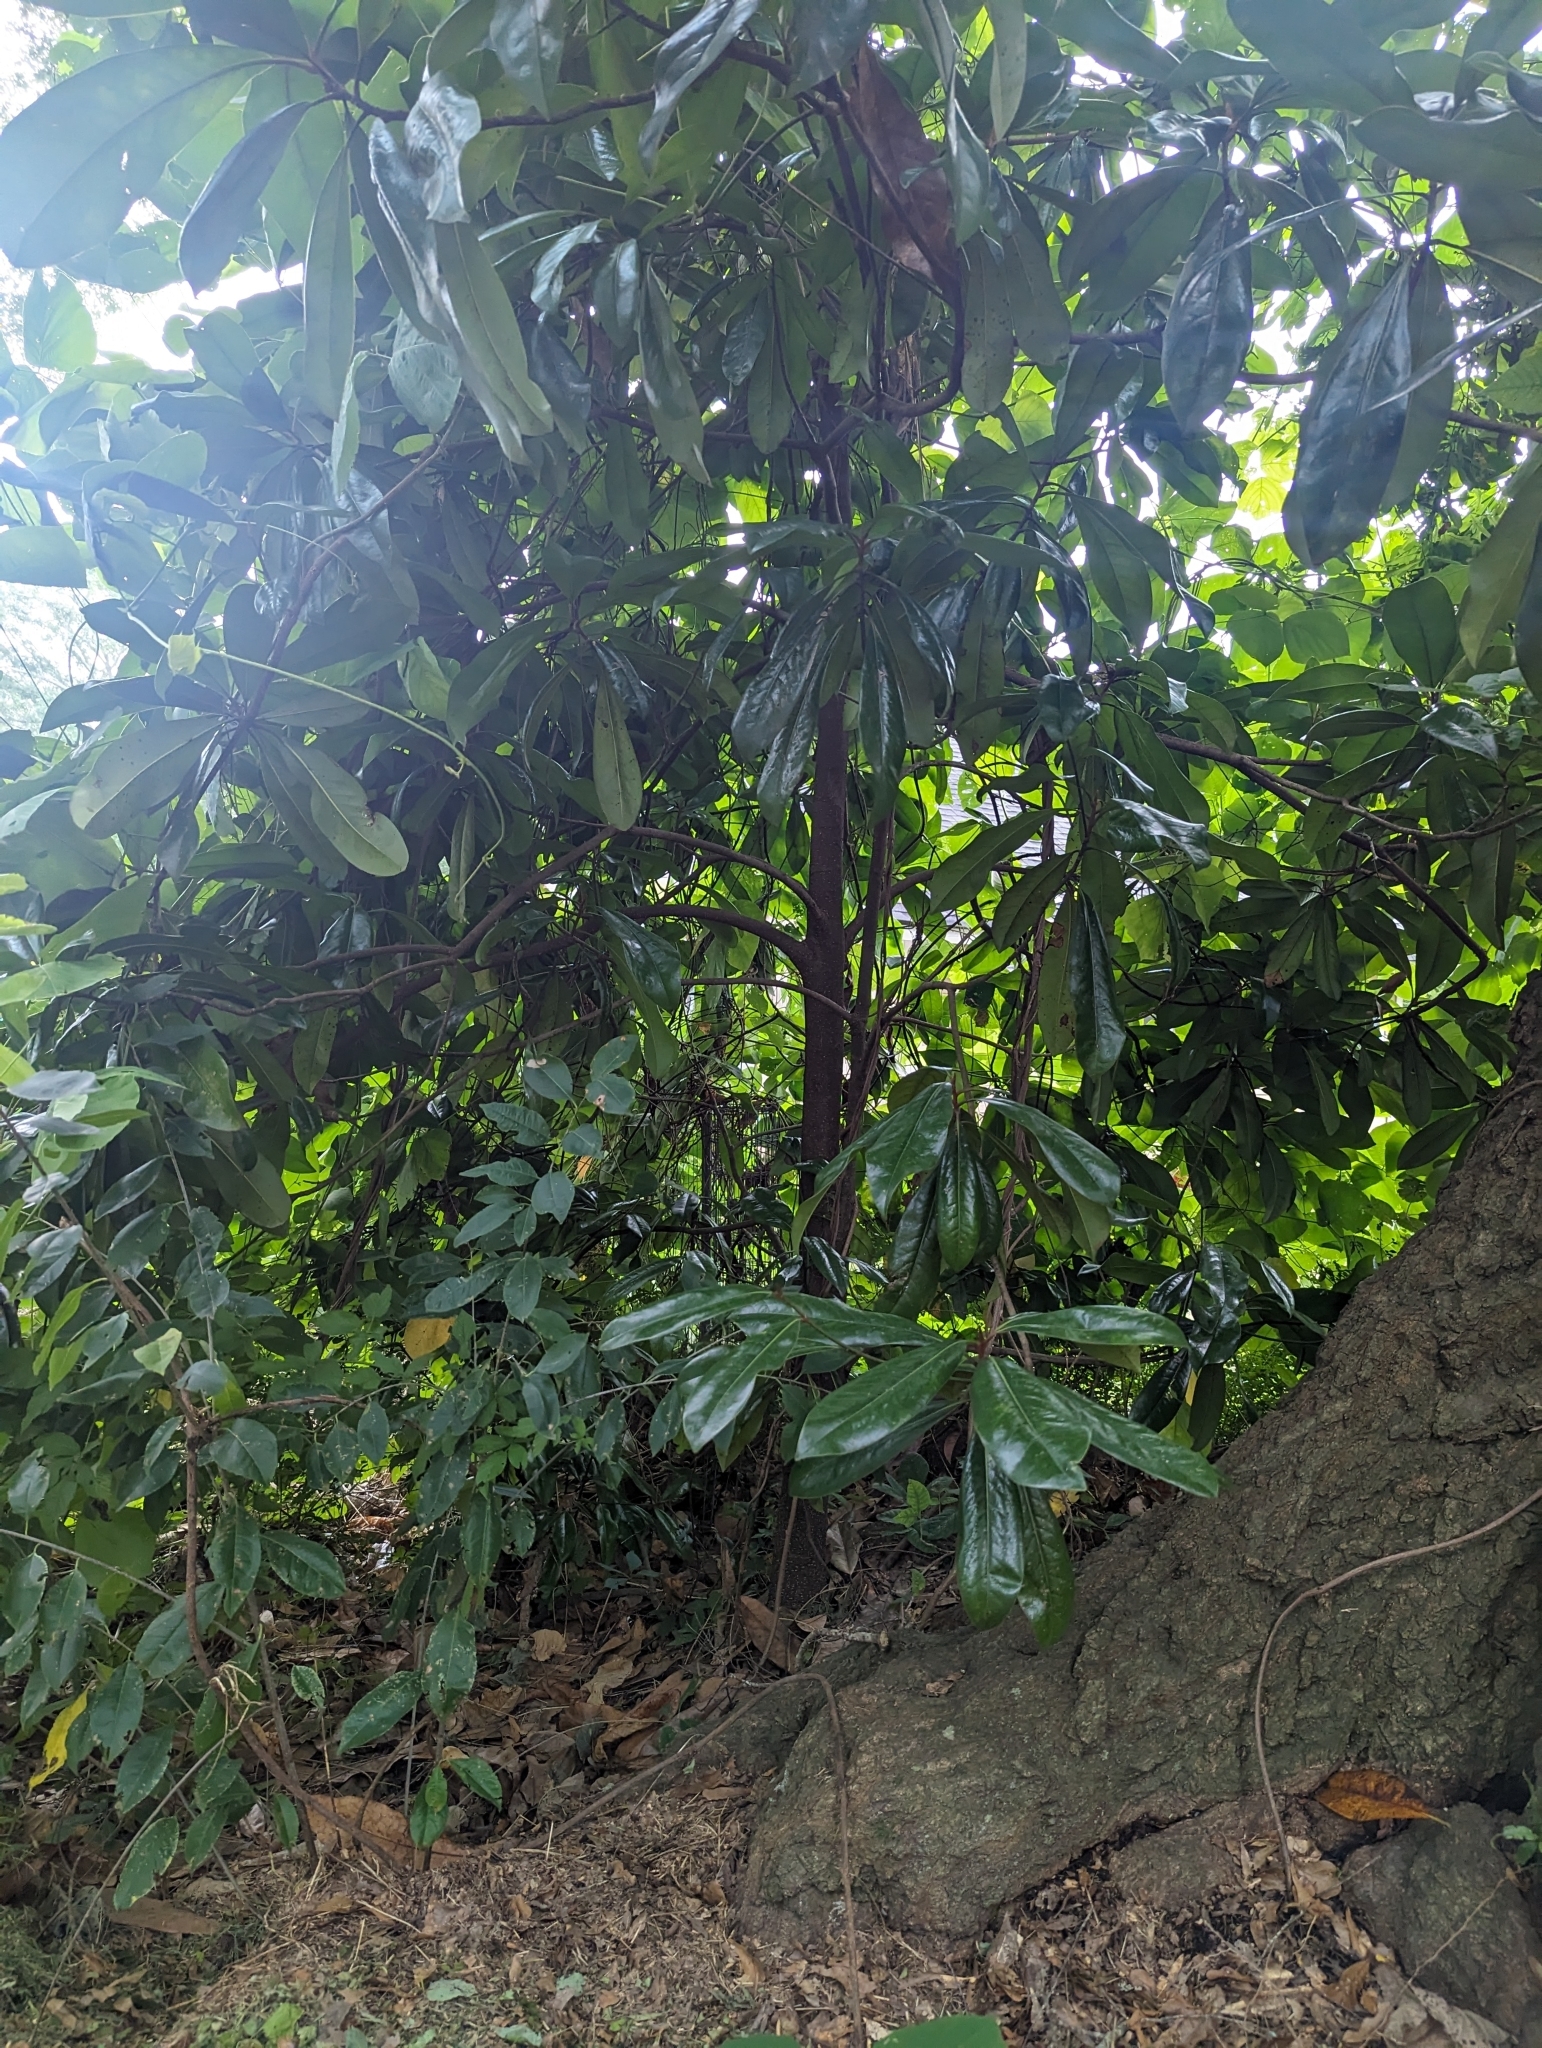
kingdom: Plantae
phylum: Tracheophyta
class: Magnoliopsida
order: Magnoliales
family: Magnoliaceae
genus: Magnolia
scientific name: Magnolia grandiflora
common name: Southern magnolia
